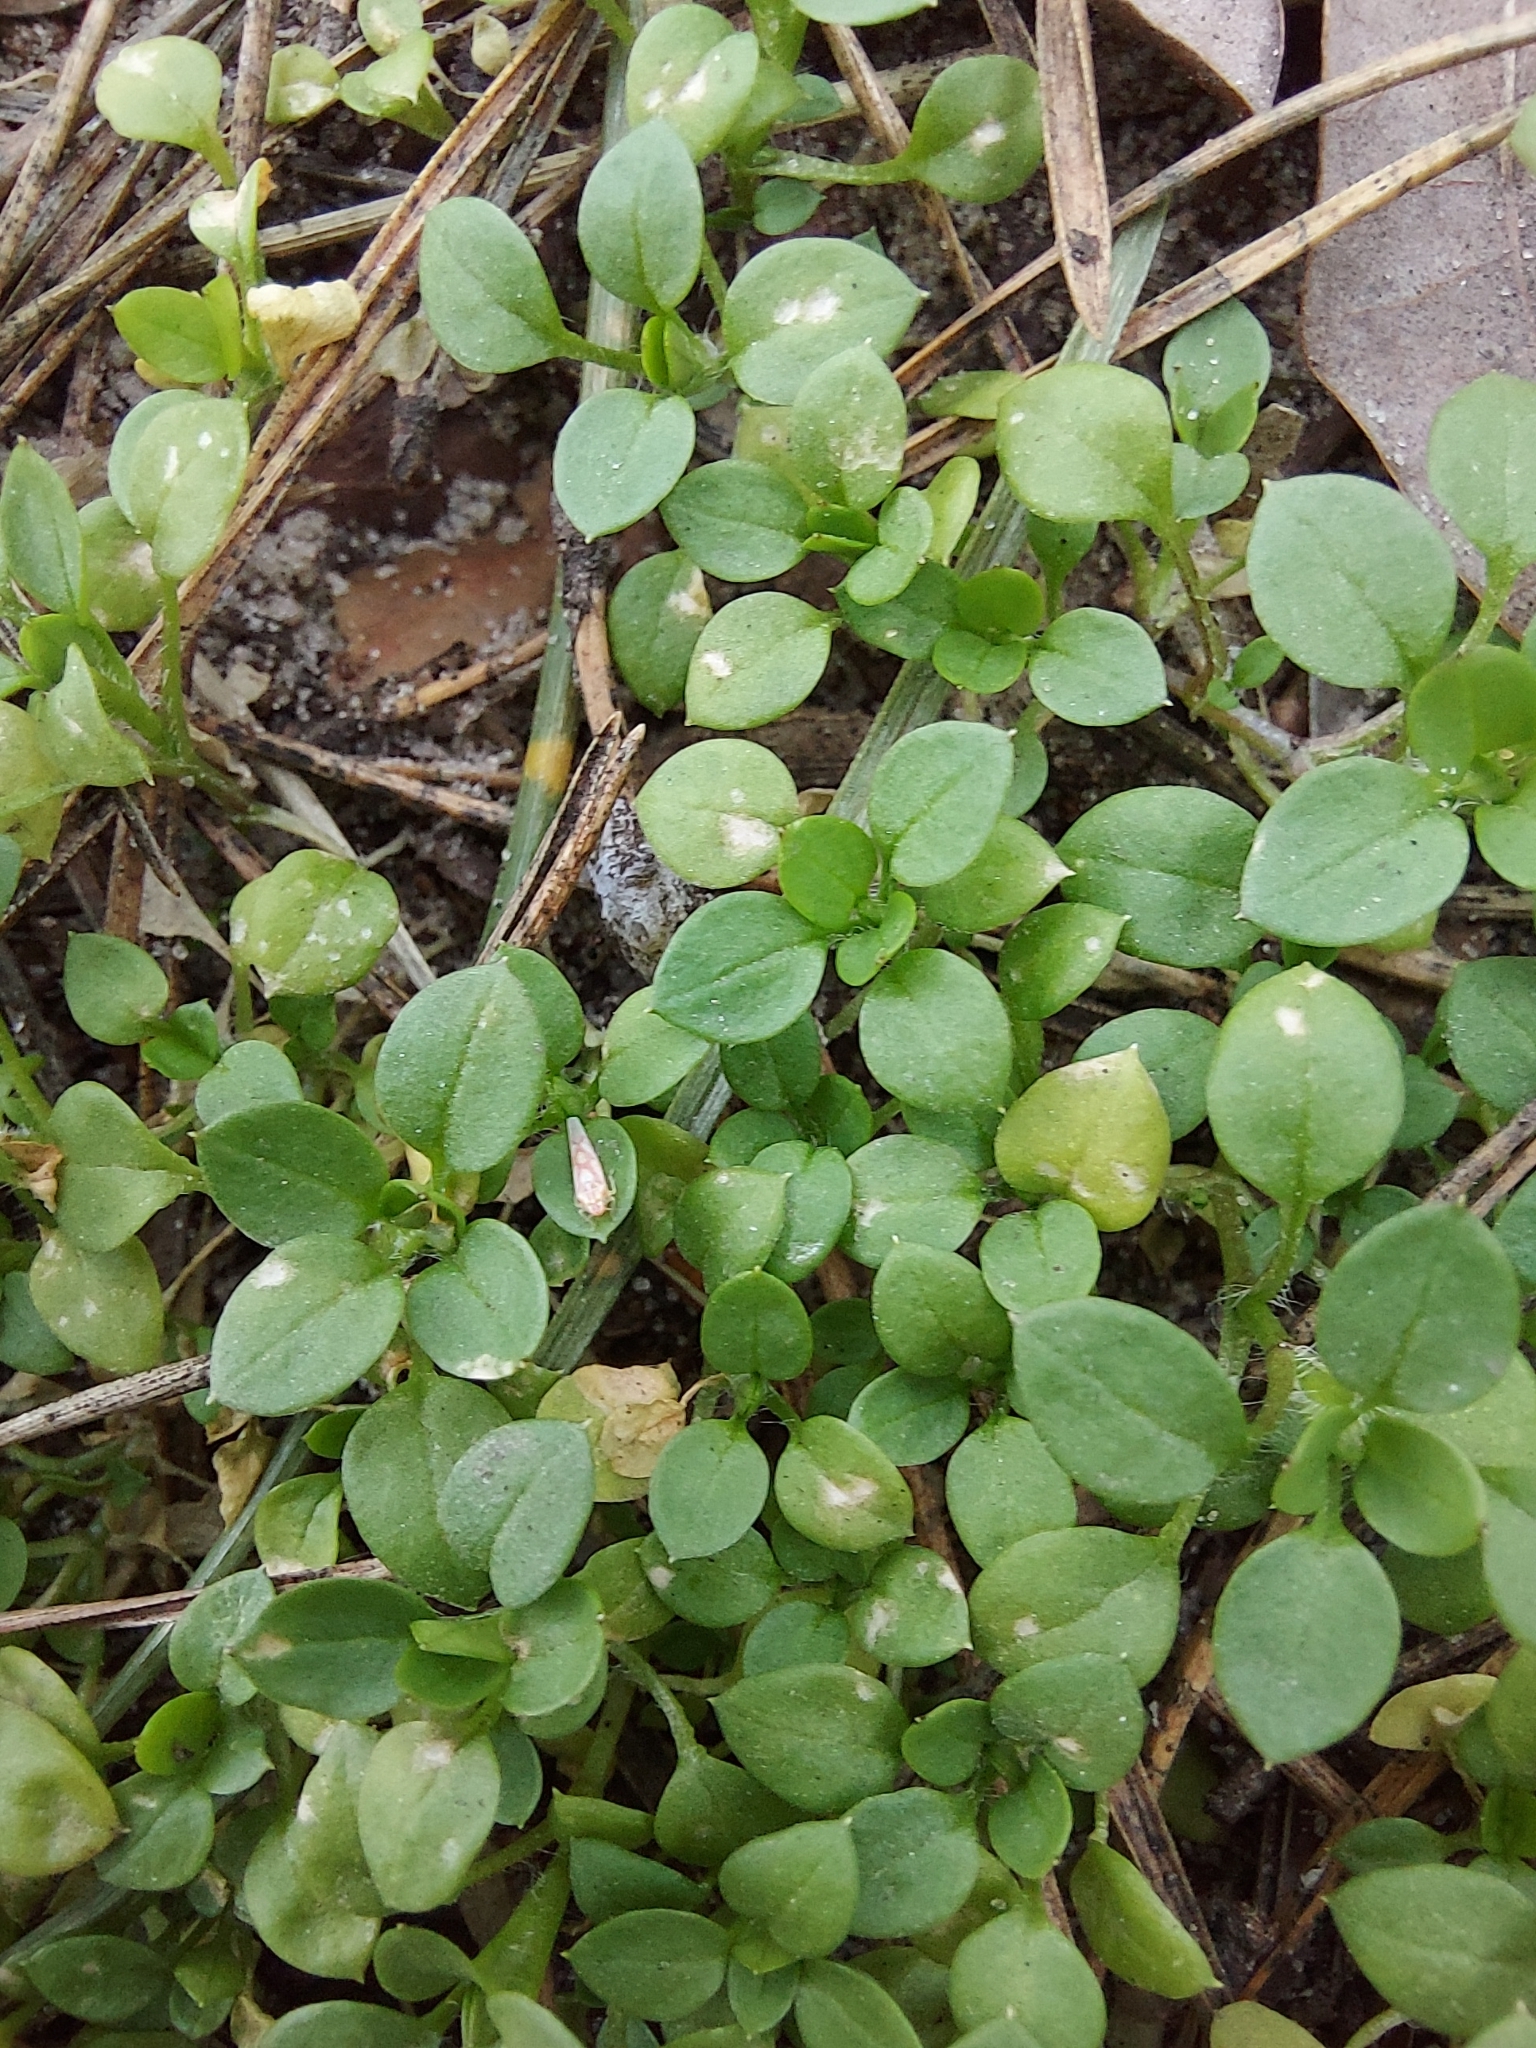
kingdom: Plantae
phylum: Tracheophyta
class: Magnoliopsida
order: Caryophyllales
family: Caryophyllaceae
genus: Stellaria
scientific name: Stellaria media
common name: Common chickweed
